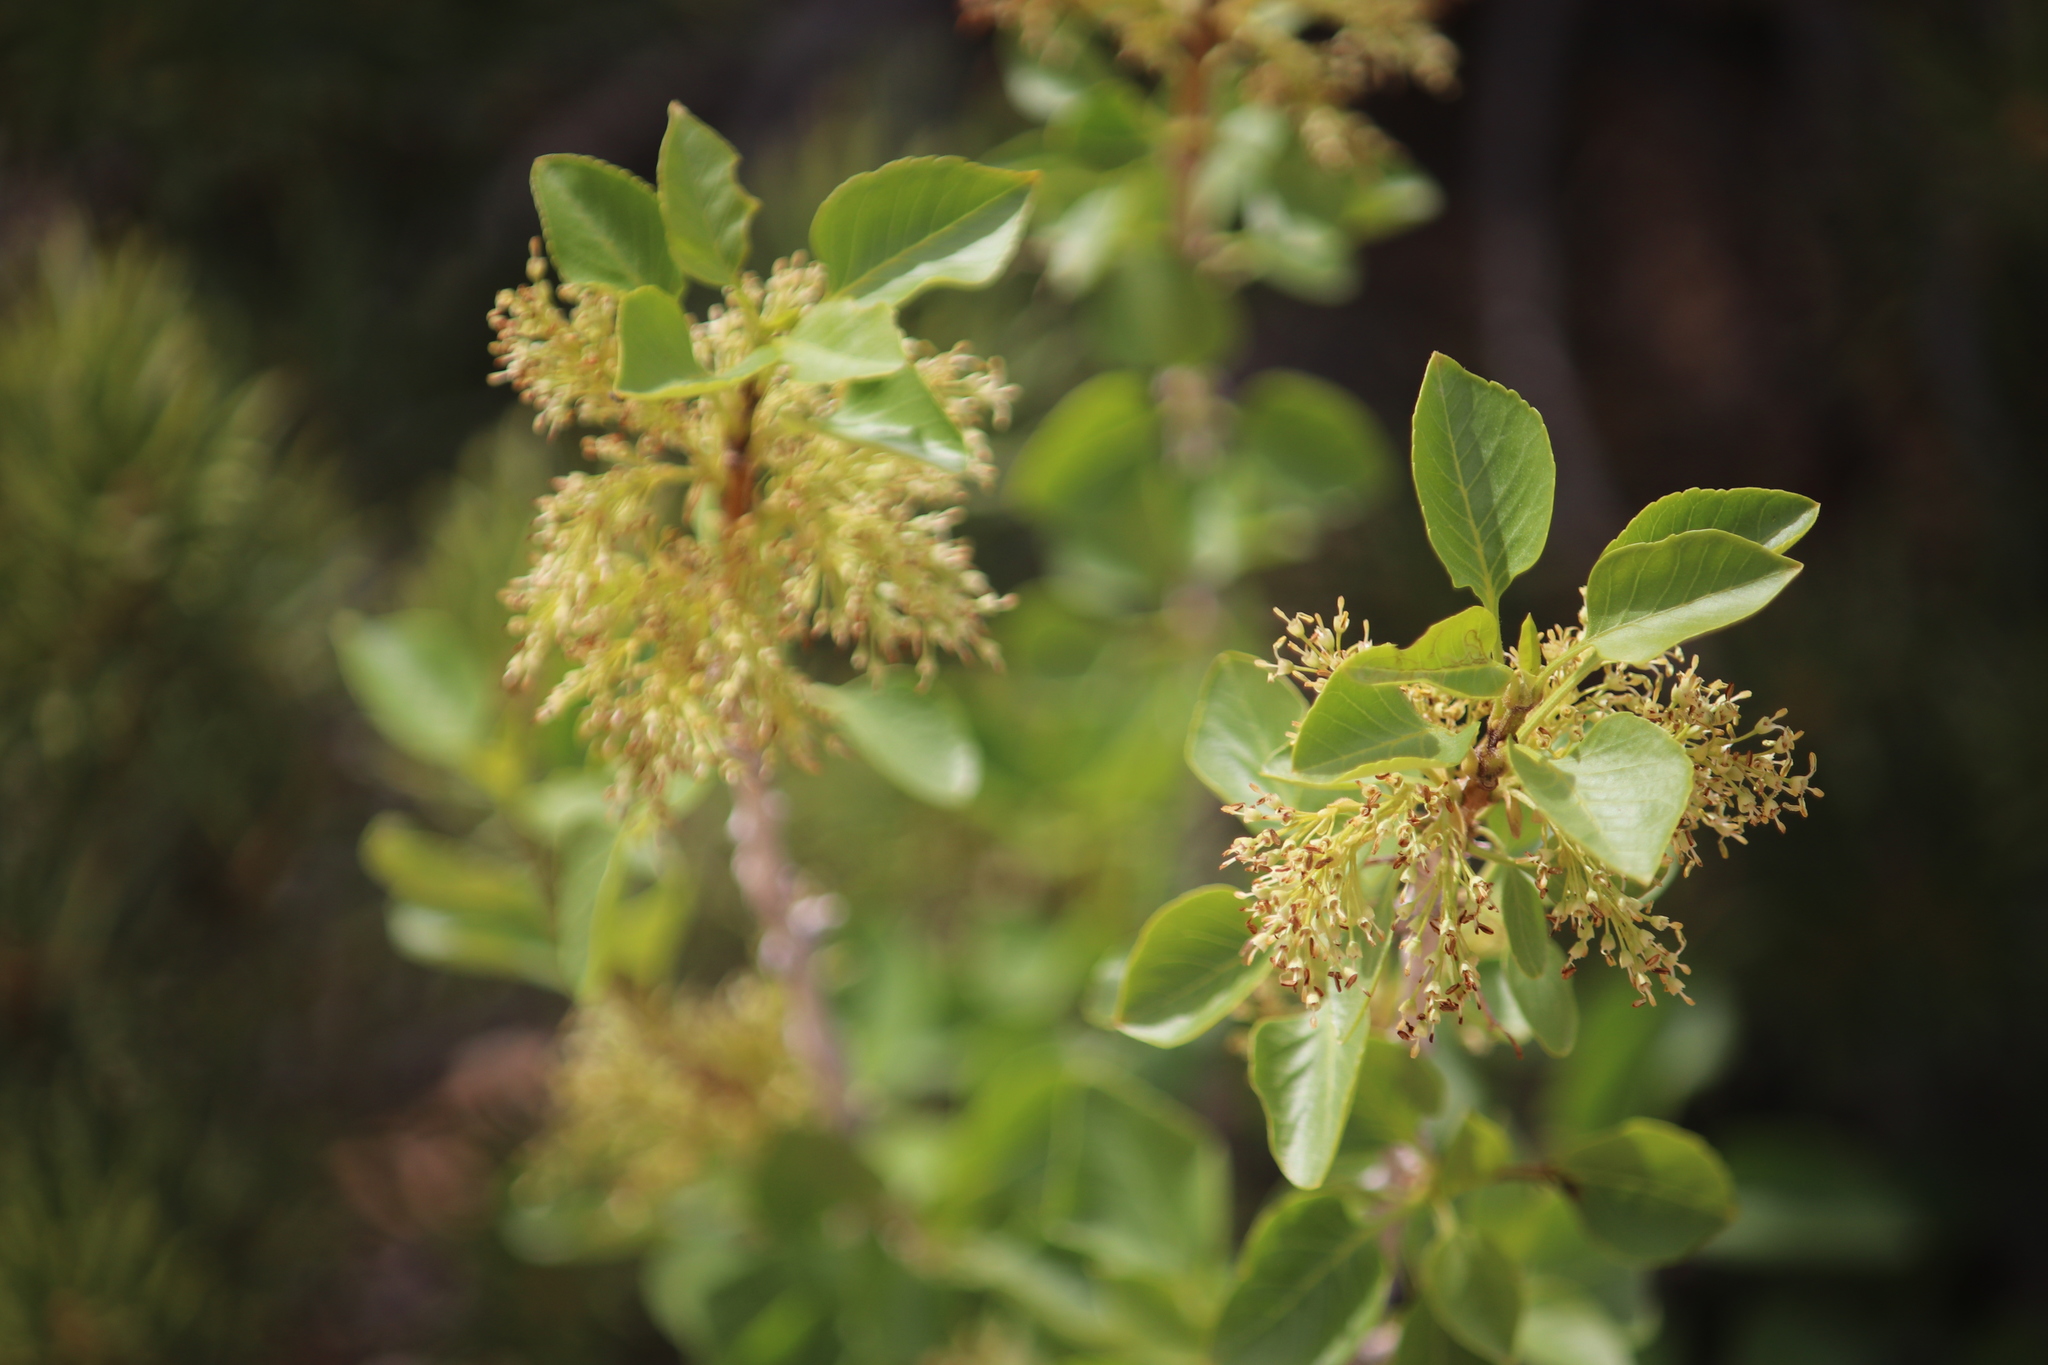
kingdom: Plantae
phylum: Tracheophyta
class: Magnoliopsida
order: Lamiales
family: Oleaceae
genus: Fraxinus
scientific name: Fraxinus anomala
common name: Utah ash
